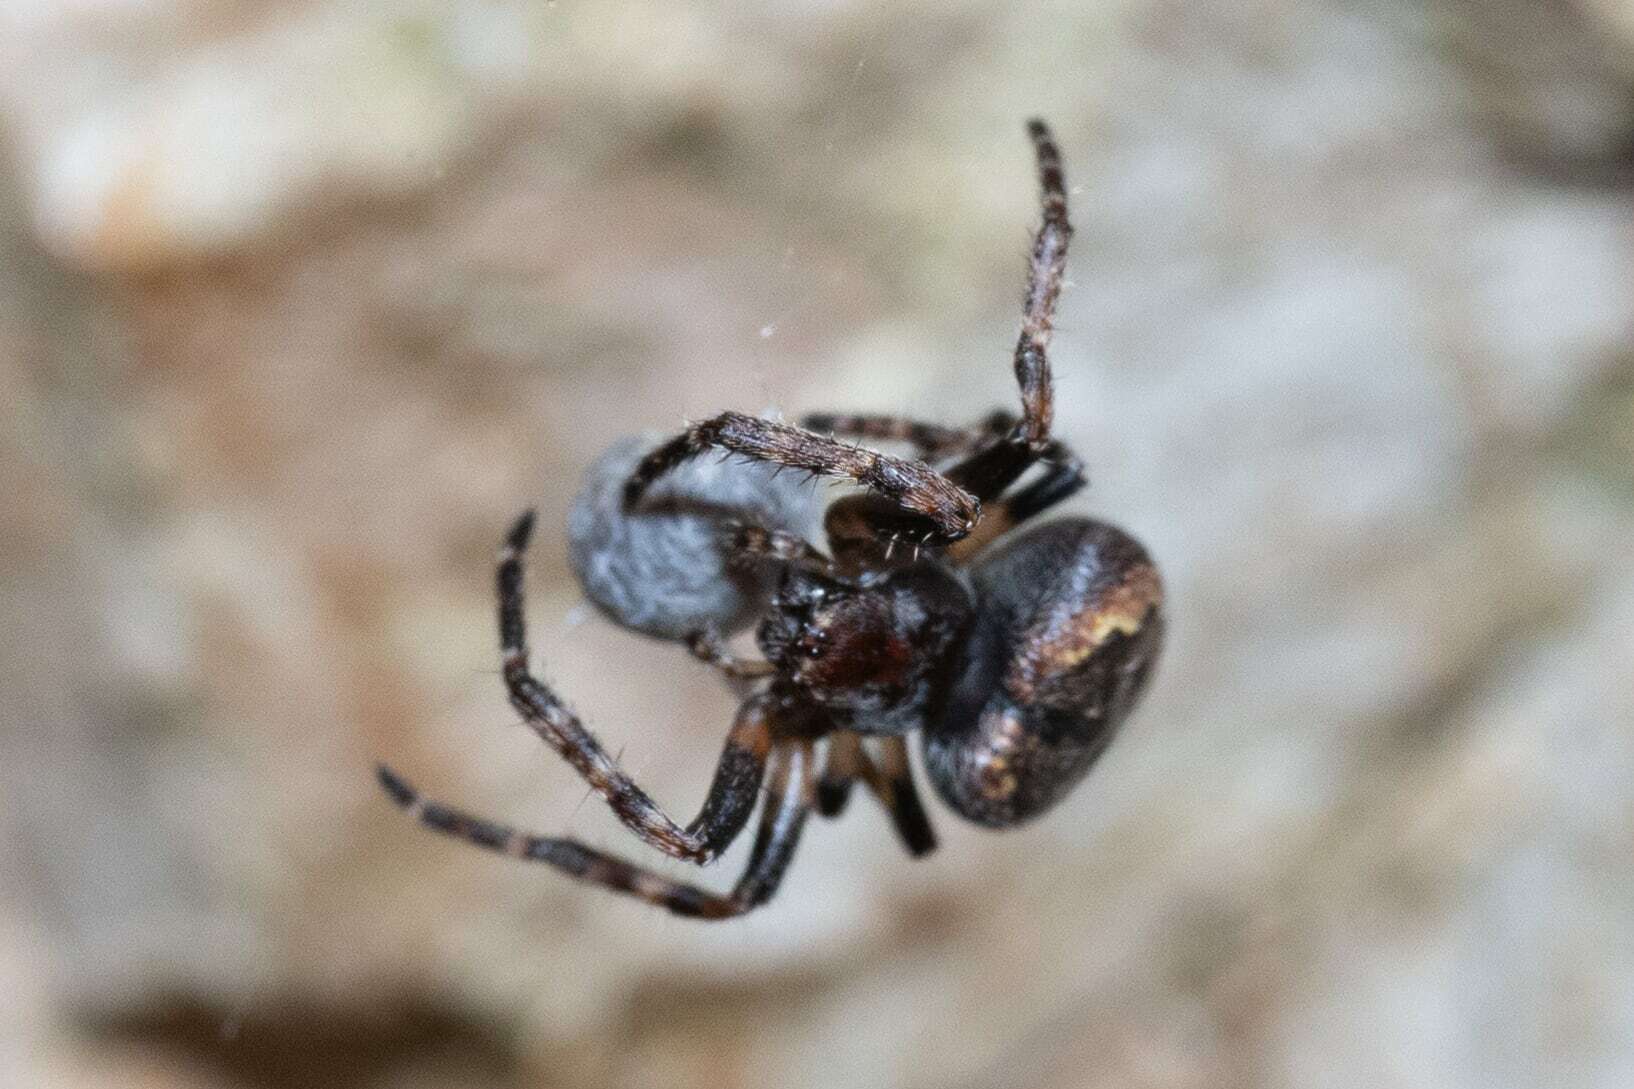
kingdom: Animalia
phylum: Arthropoda
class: Arachnida
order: Araneae
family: Araneidae
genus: Nuctenea
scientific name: Nuctenea umbratica
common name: Toad spider
